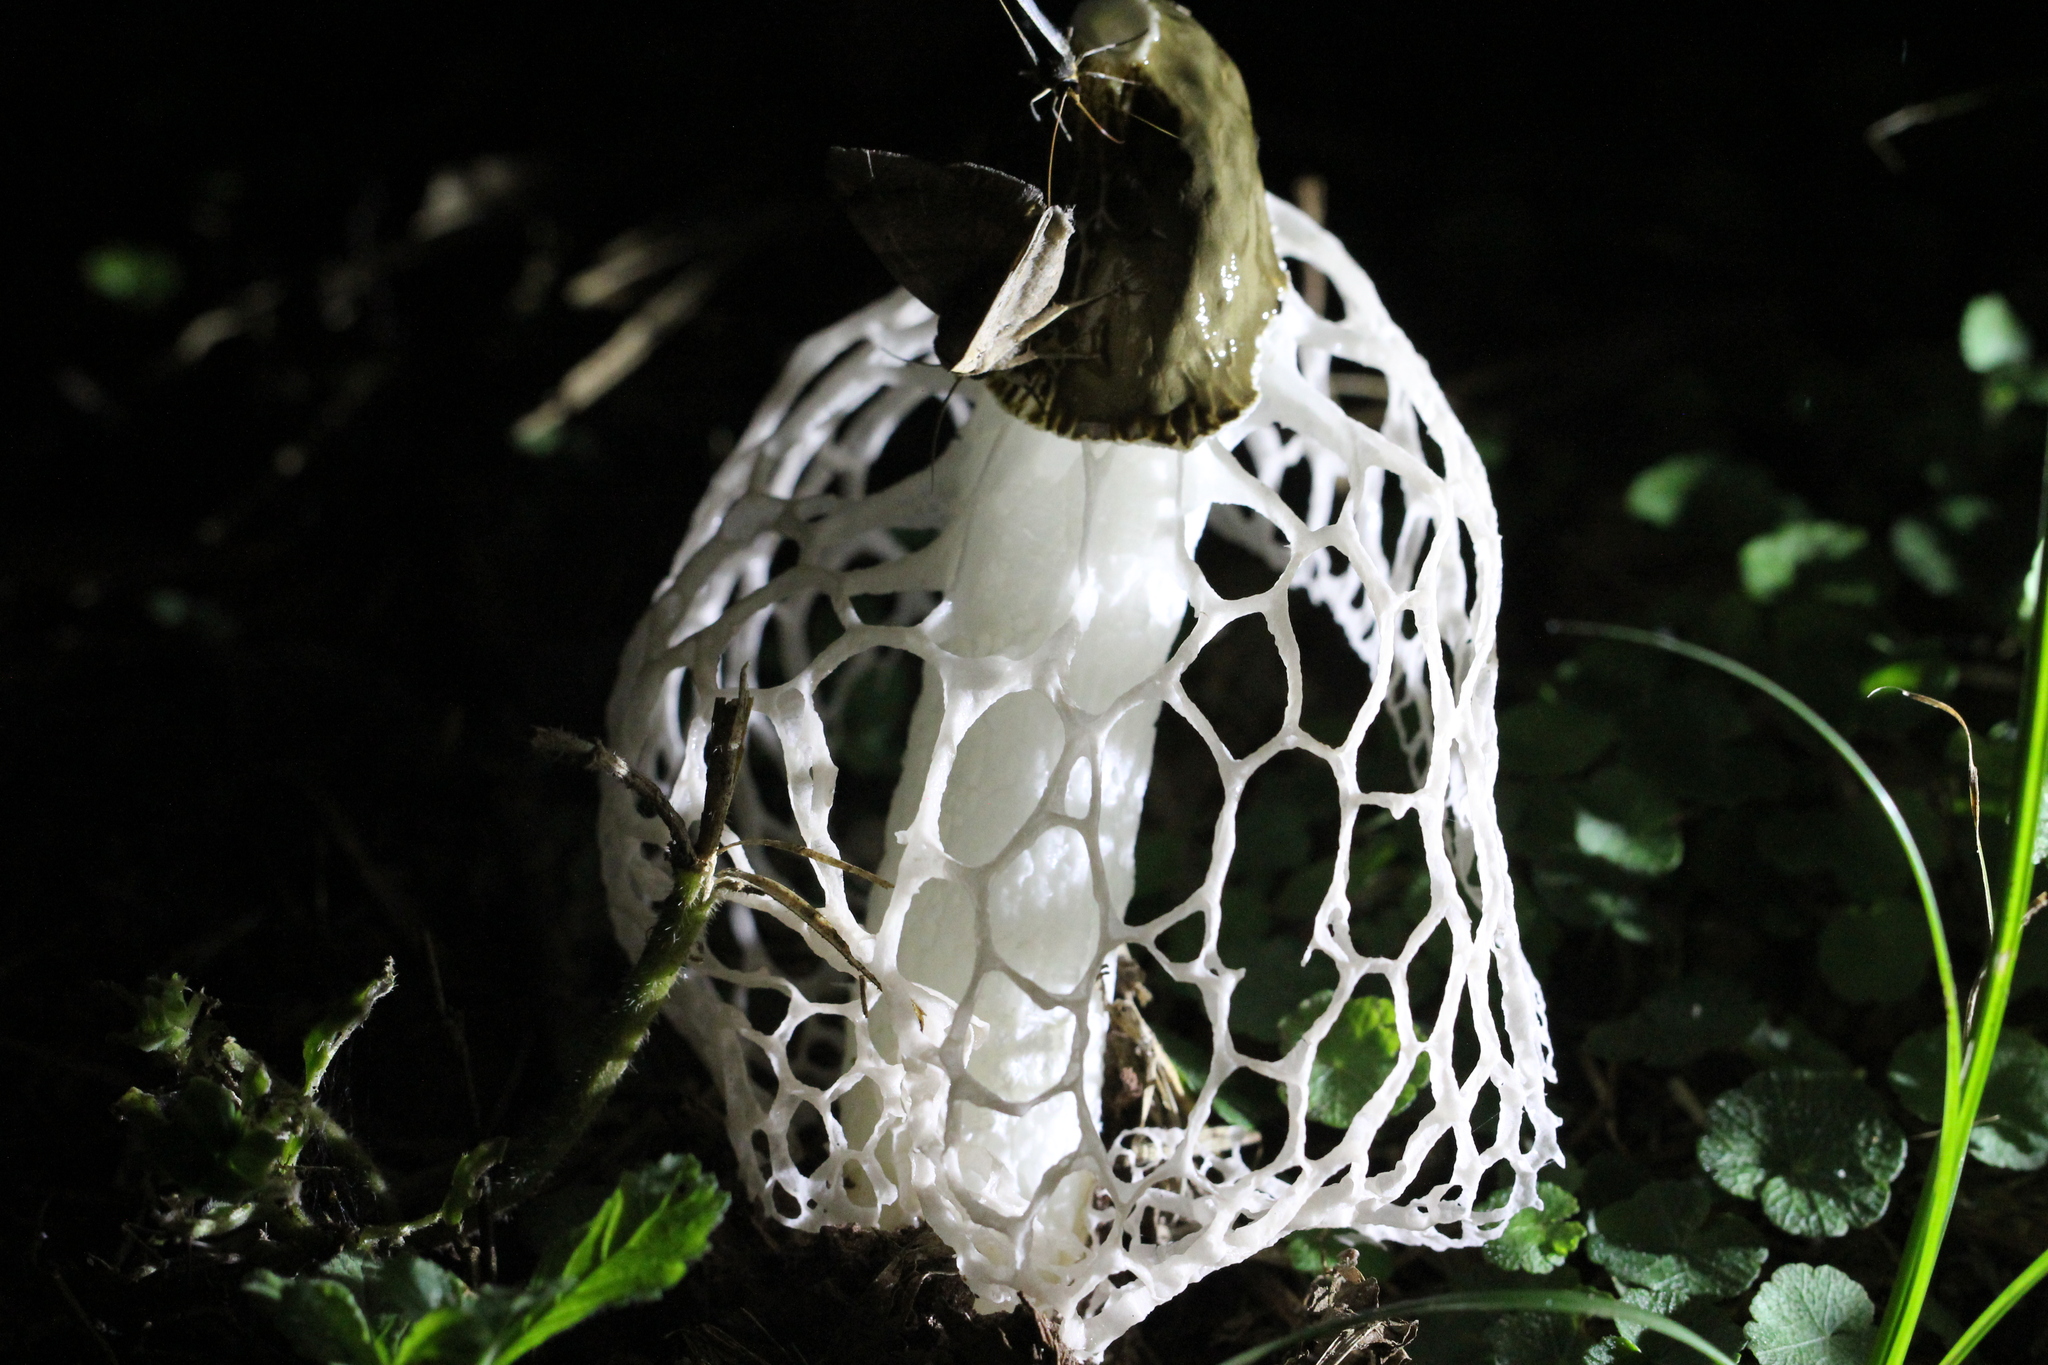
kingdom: Fungi
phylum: Basidiomycota
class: Agaricomycetes
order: Phallales
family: Phallaceae
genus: Phallus
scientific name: Phallus indusiatus
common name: Bridal veil stinkhorn
